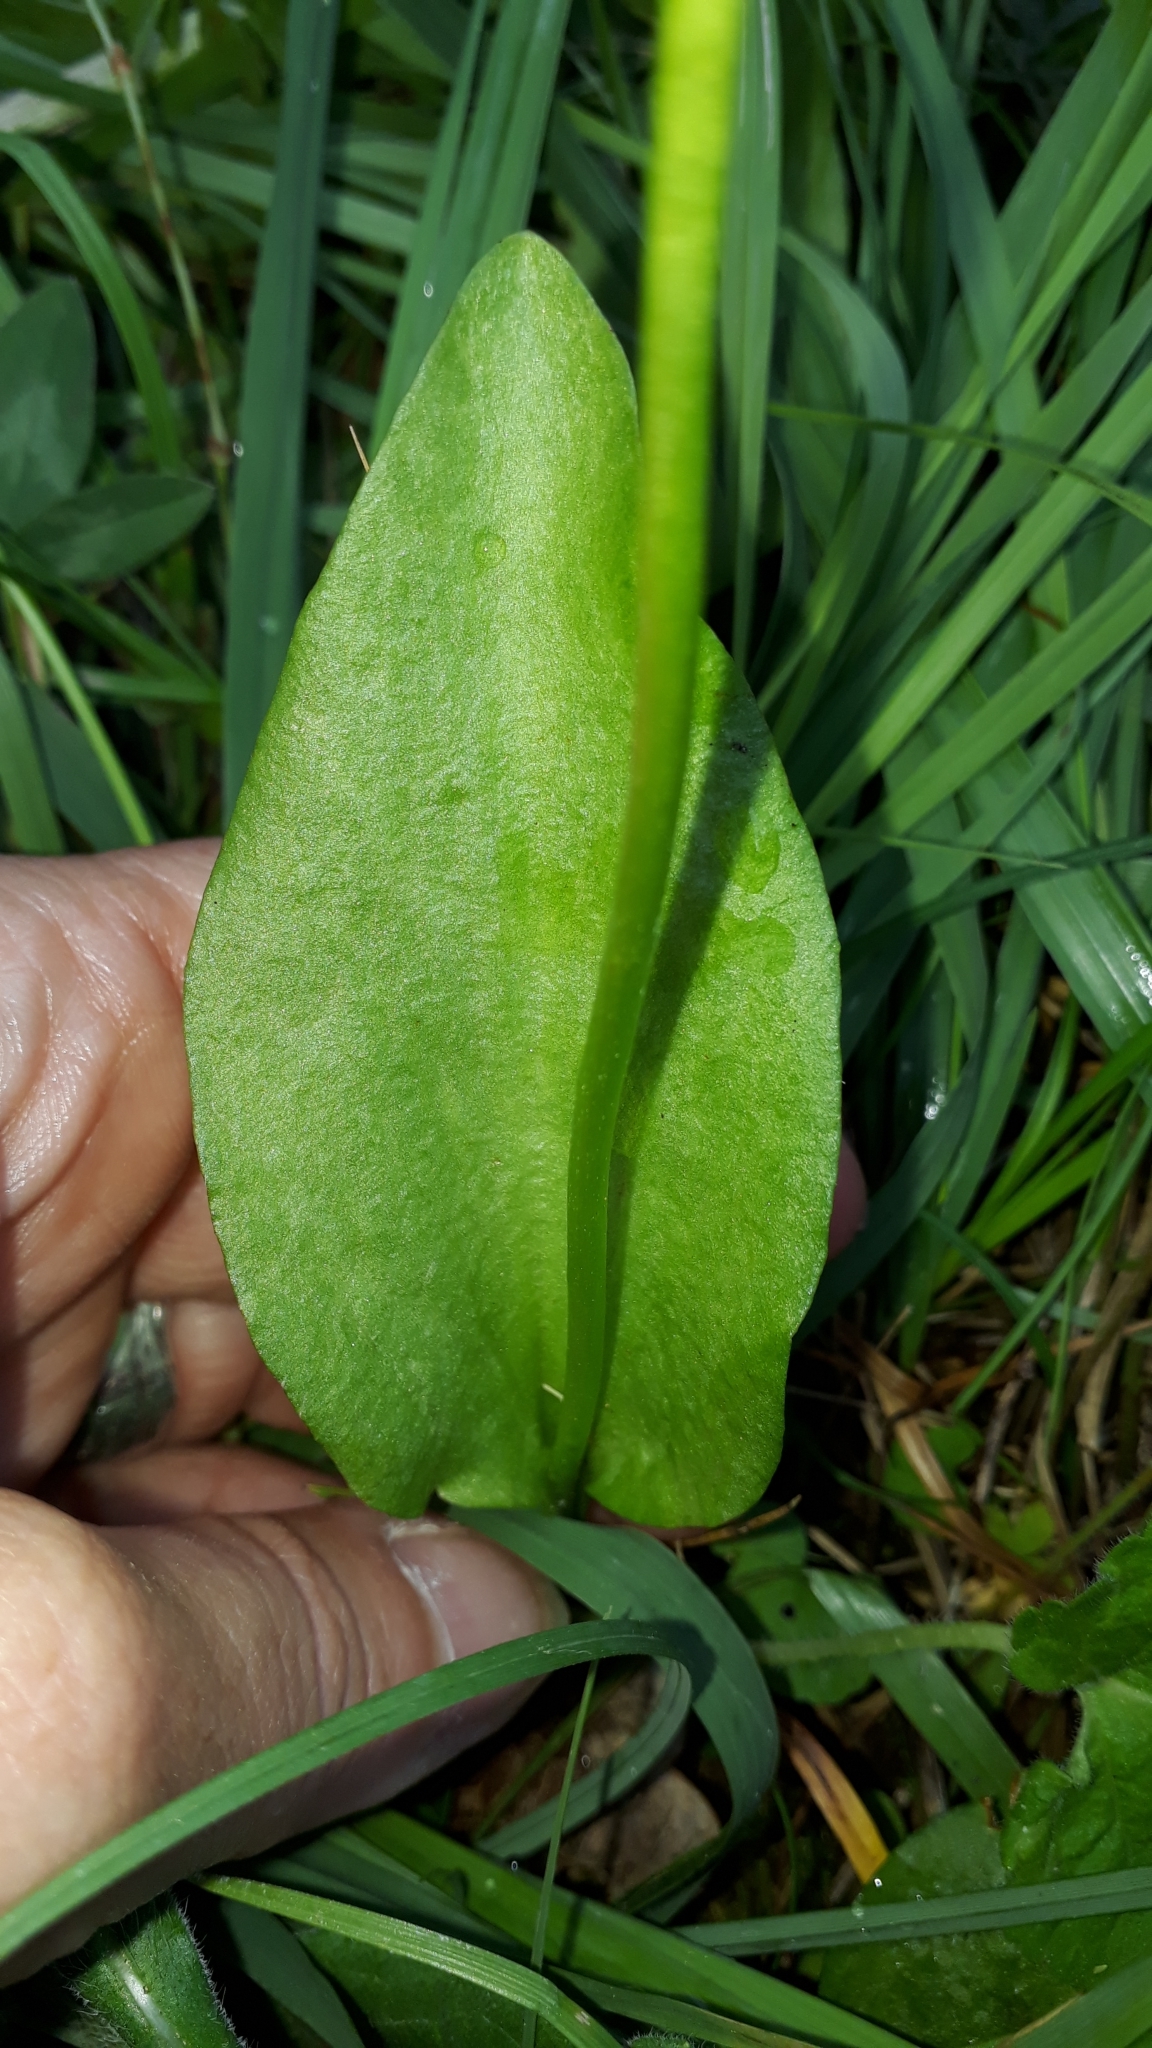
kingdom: Plantae
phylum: Tracheophyta
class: Polypodiopsida
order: Ophioglossales
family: Ophioglossaceae
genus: Ophioglossum
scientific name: Ophioglossum vulgatum
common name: Adder's-tongue
